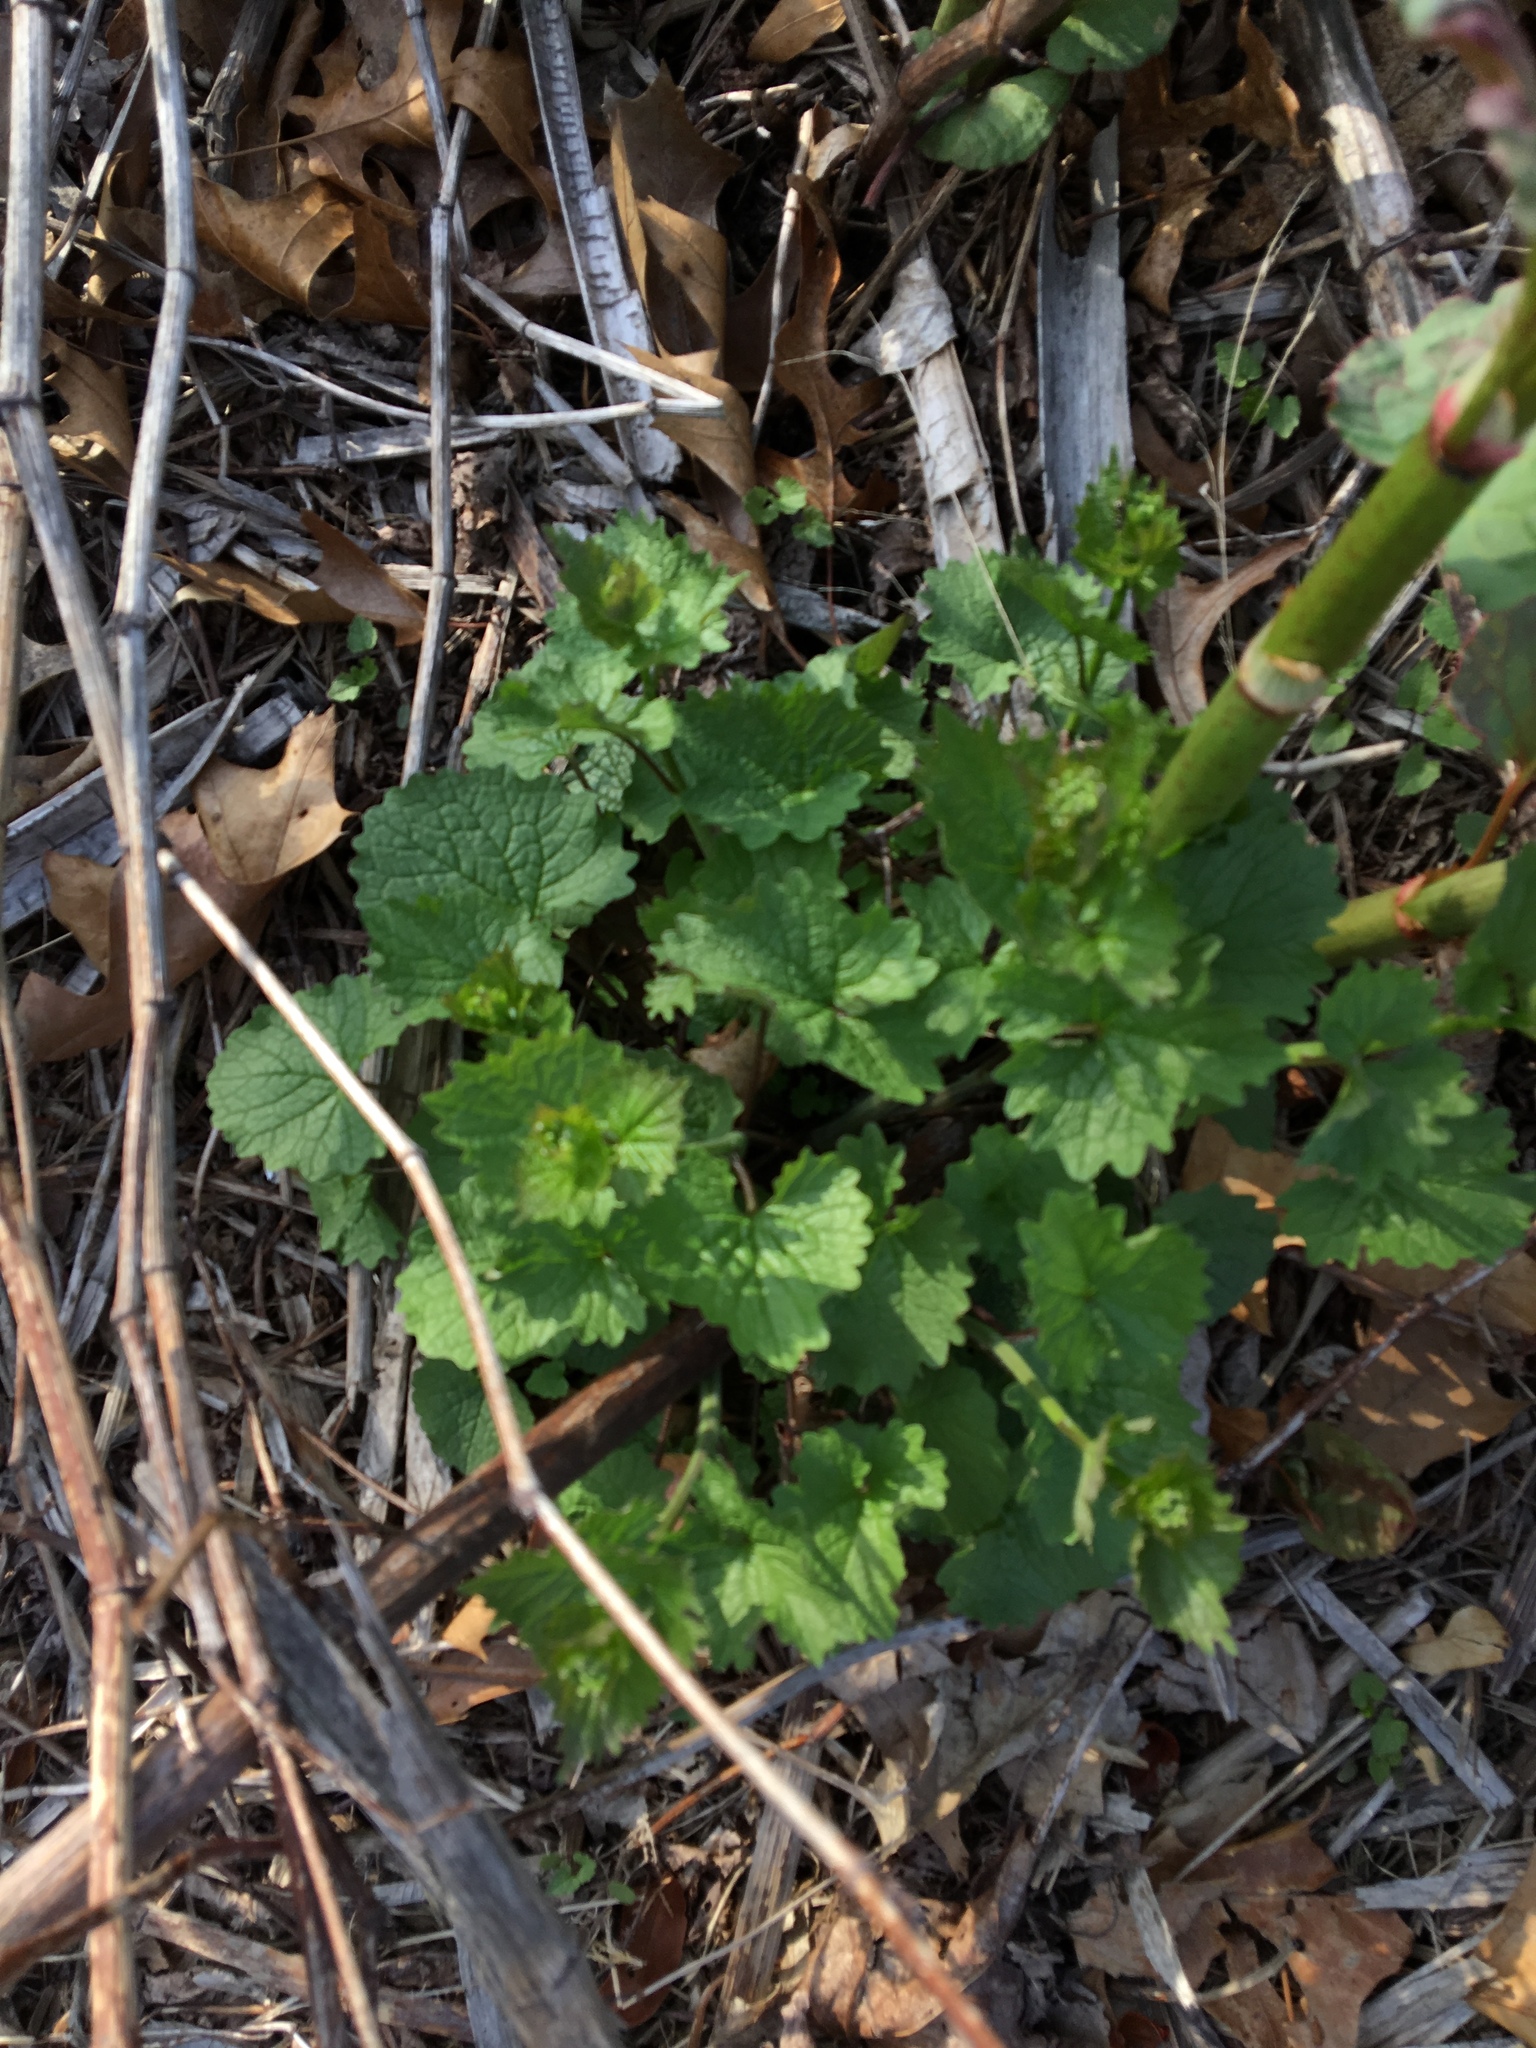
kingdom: Plantae
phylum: Tracheophyta
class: Magnoliopsida
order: Brassicales
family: Brassicaceae
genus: Alliaria
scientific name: Alliaria petiolata
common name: Garlic mustard
